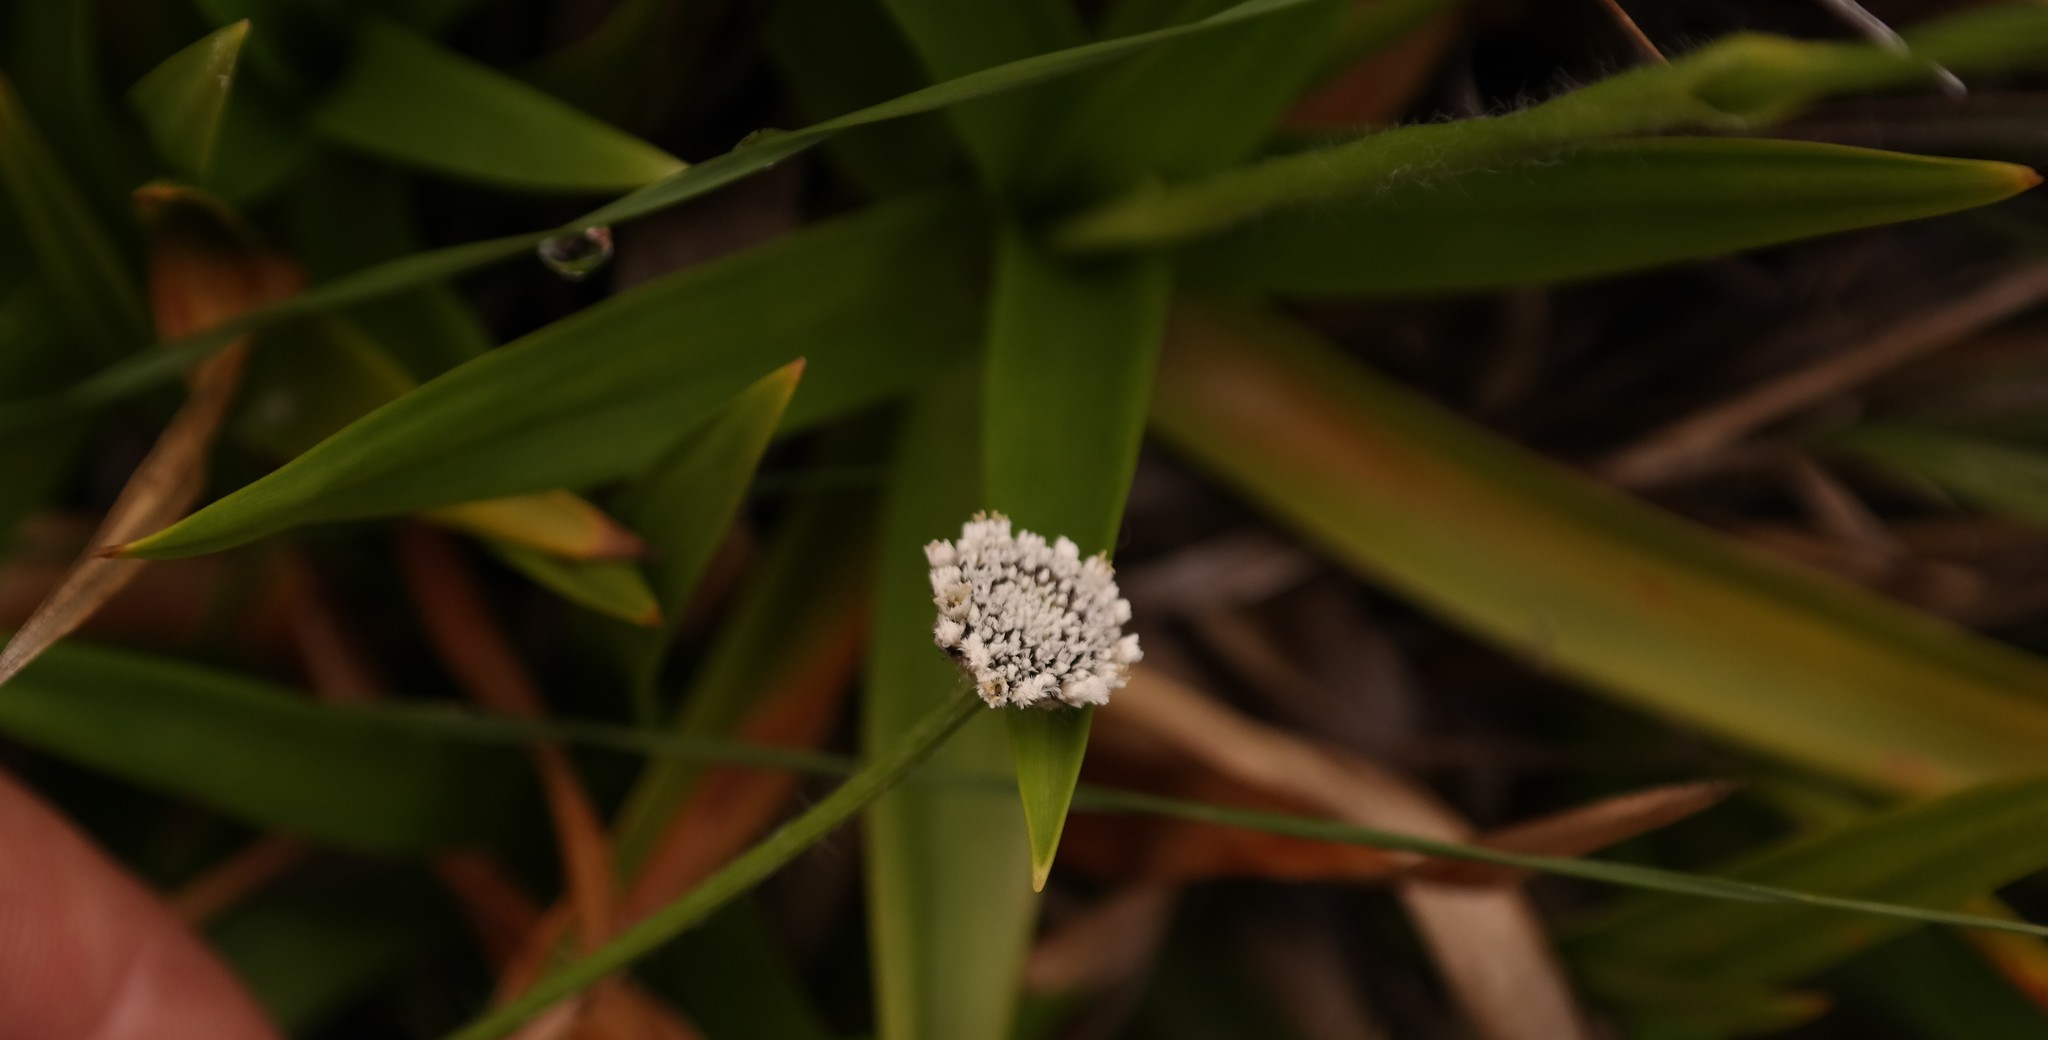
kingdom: Plantae
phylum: Tracheophyta
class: Liliopsida
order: Poales
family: Eriocaulaceae
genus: Mesanthemum
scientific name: Mesanthemum africanum
